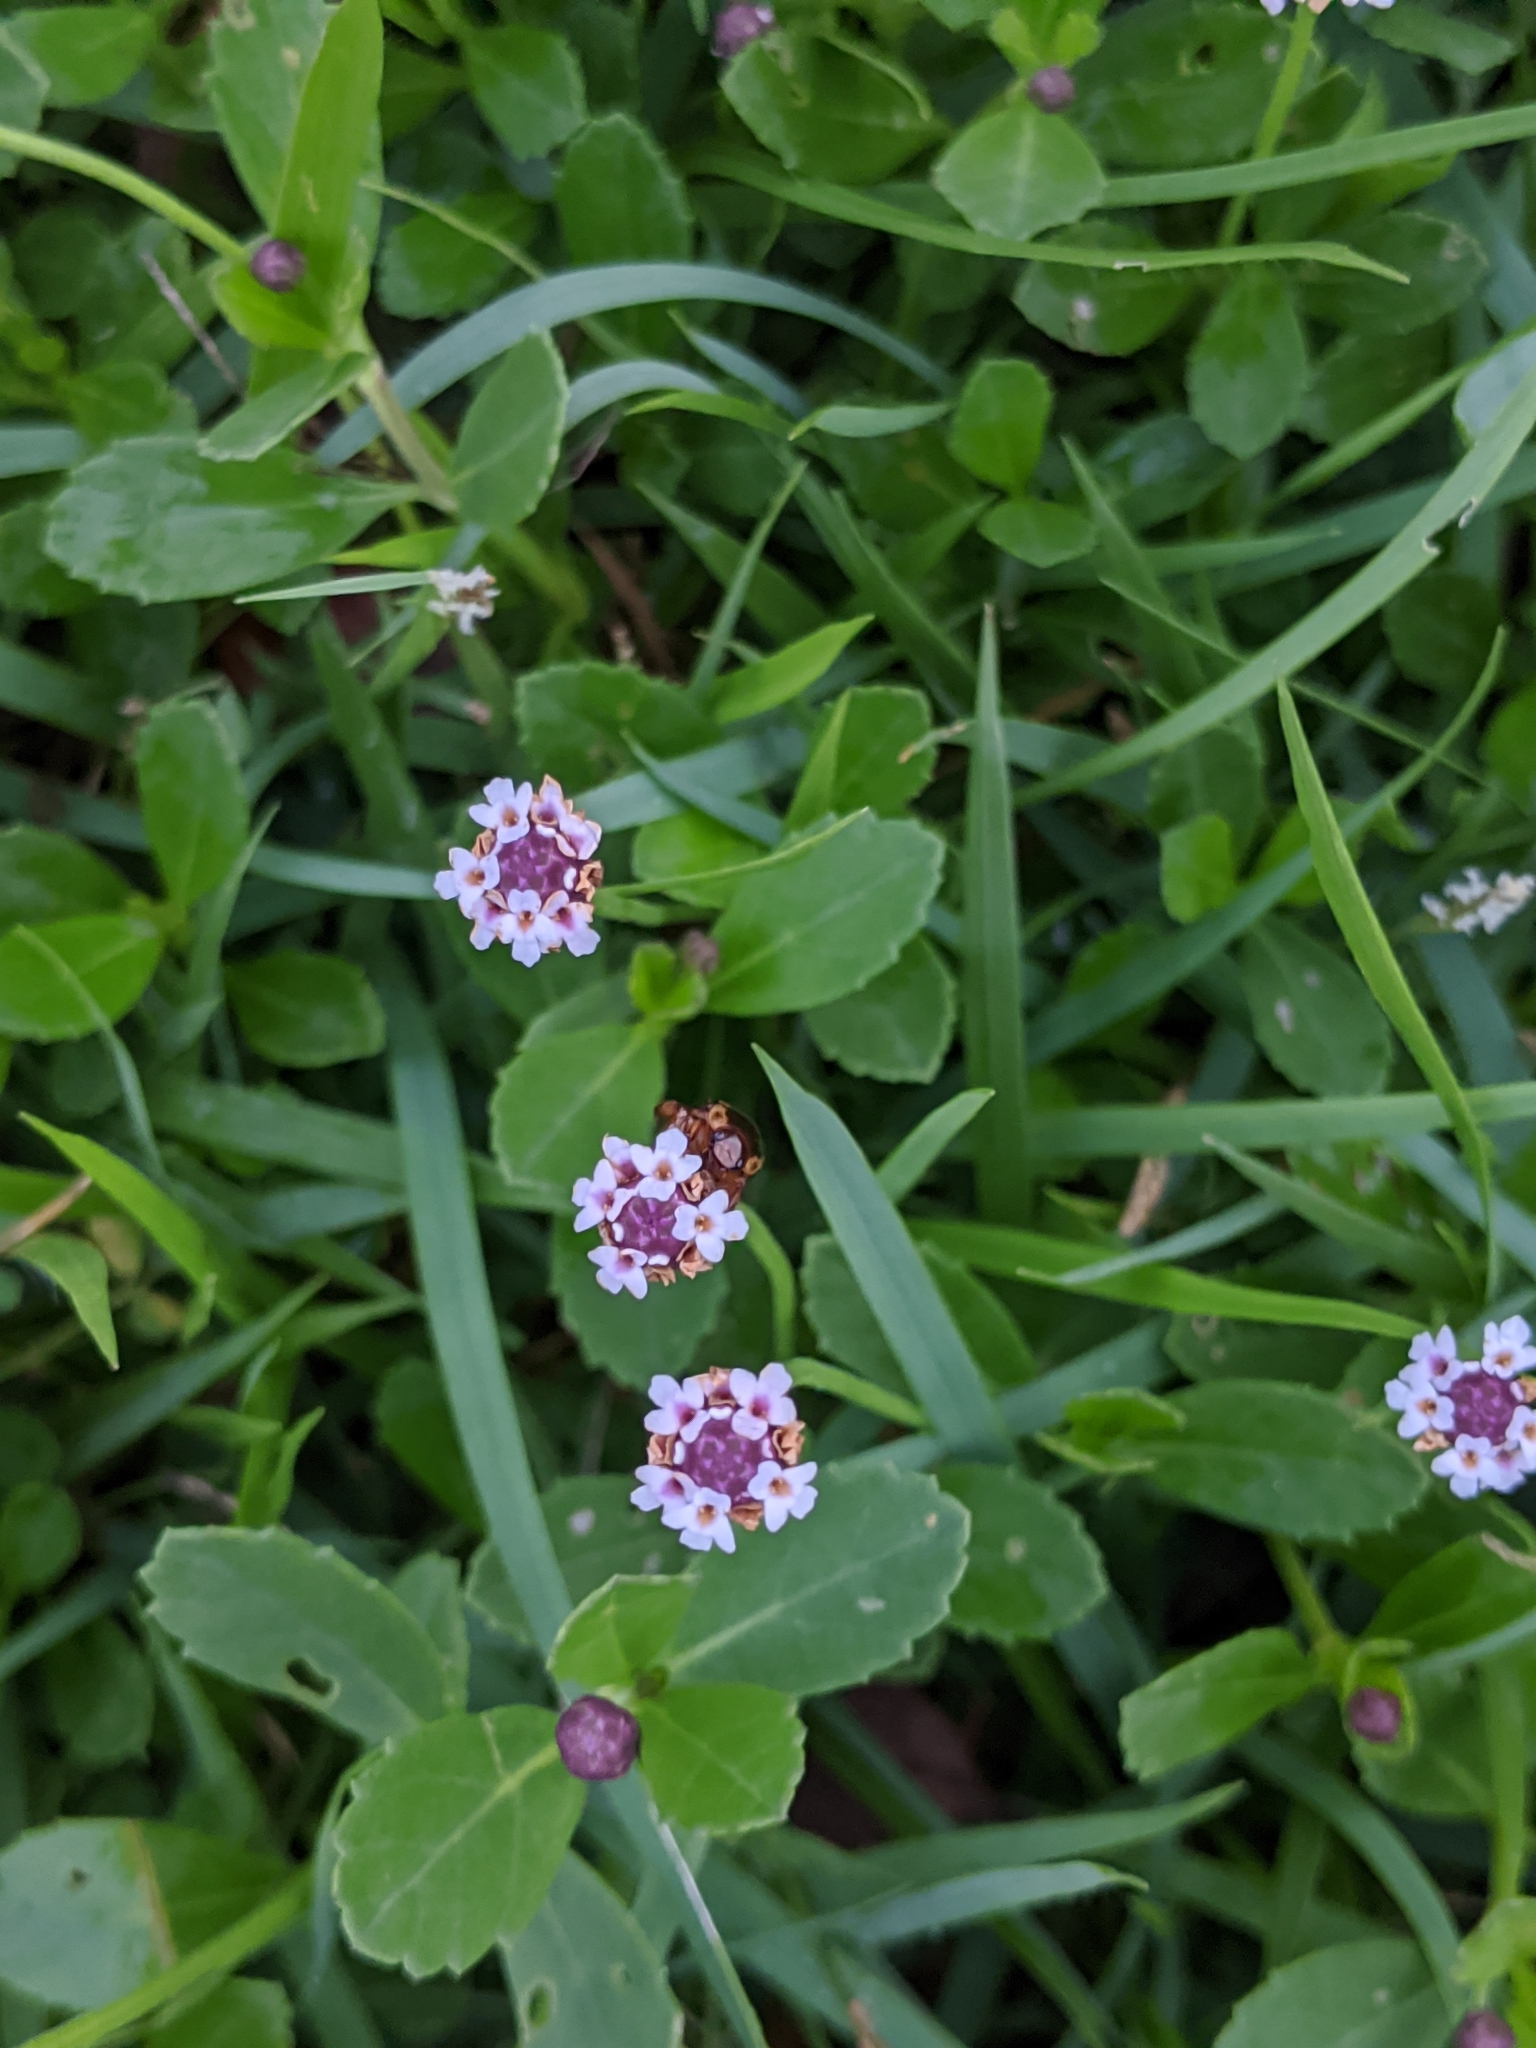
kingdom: Plantae
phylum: Tracheophyta
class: Magnoliopsida
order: Lamiales
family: Verbenaceae
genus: Phyla
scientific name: Phyla nodiflora
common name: Frogfruit
